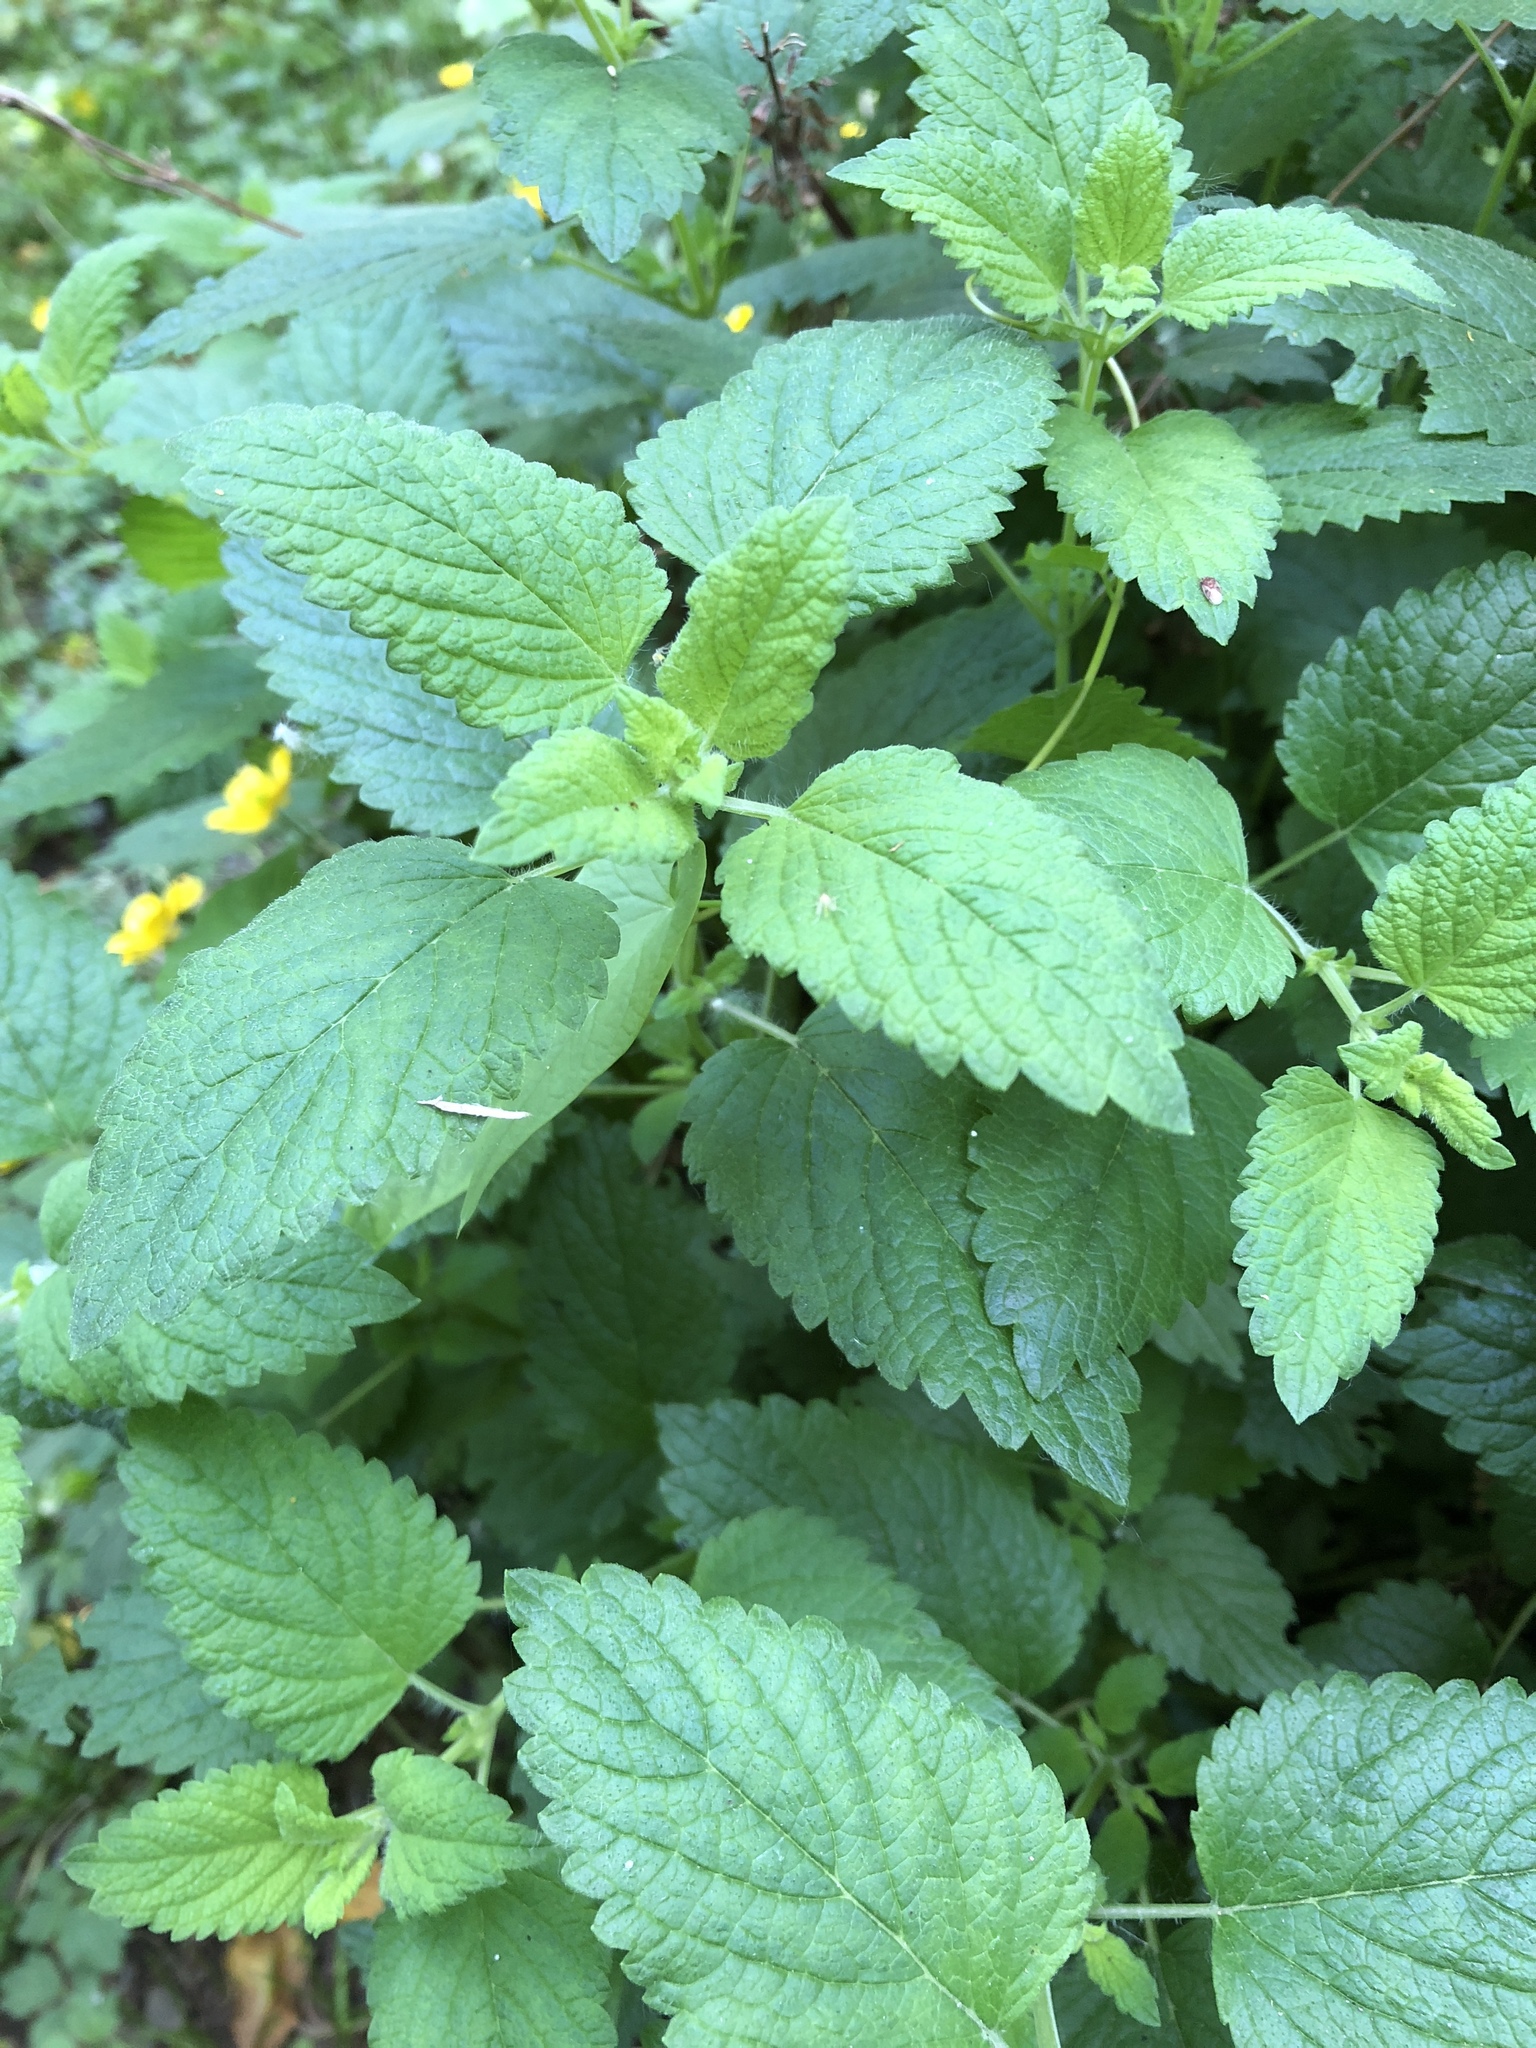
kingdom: Plantae
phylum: Tracheophyta
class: Magnoliopsida
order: Lamiales
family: Lamiaceae
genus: Melissa
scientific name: Melissa officinalis
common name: Balm
